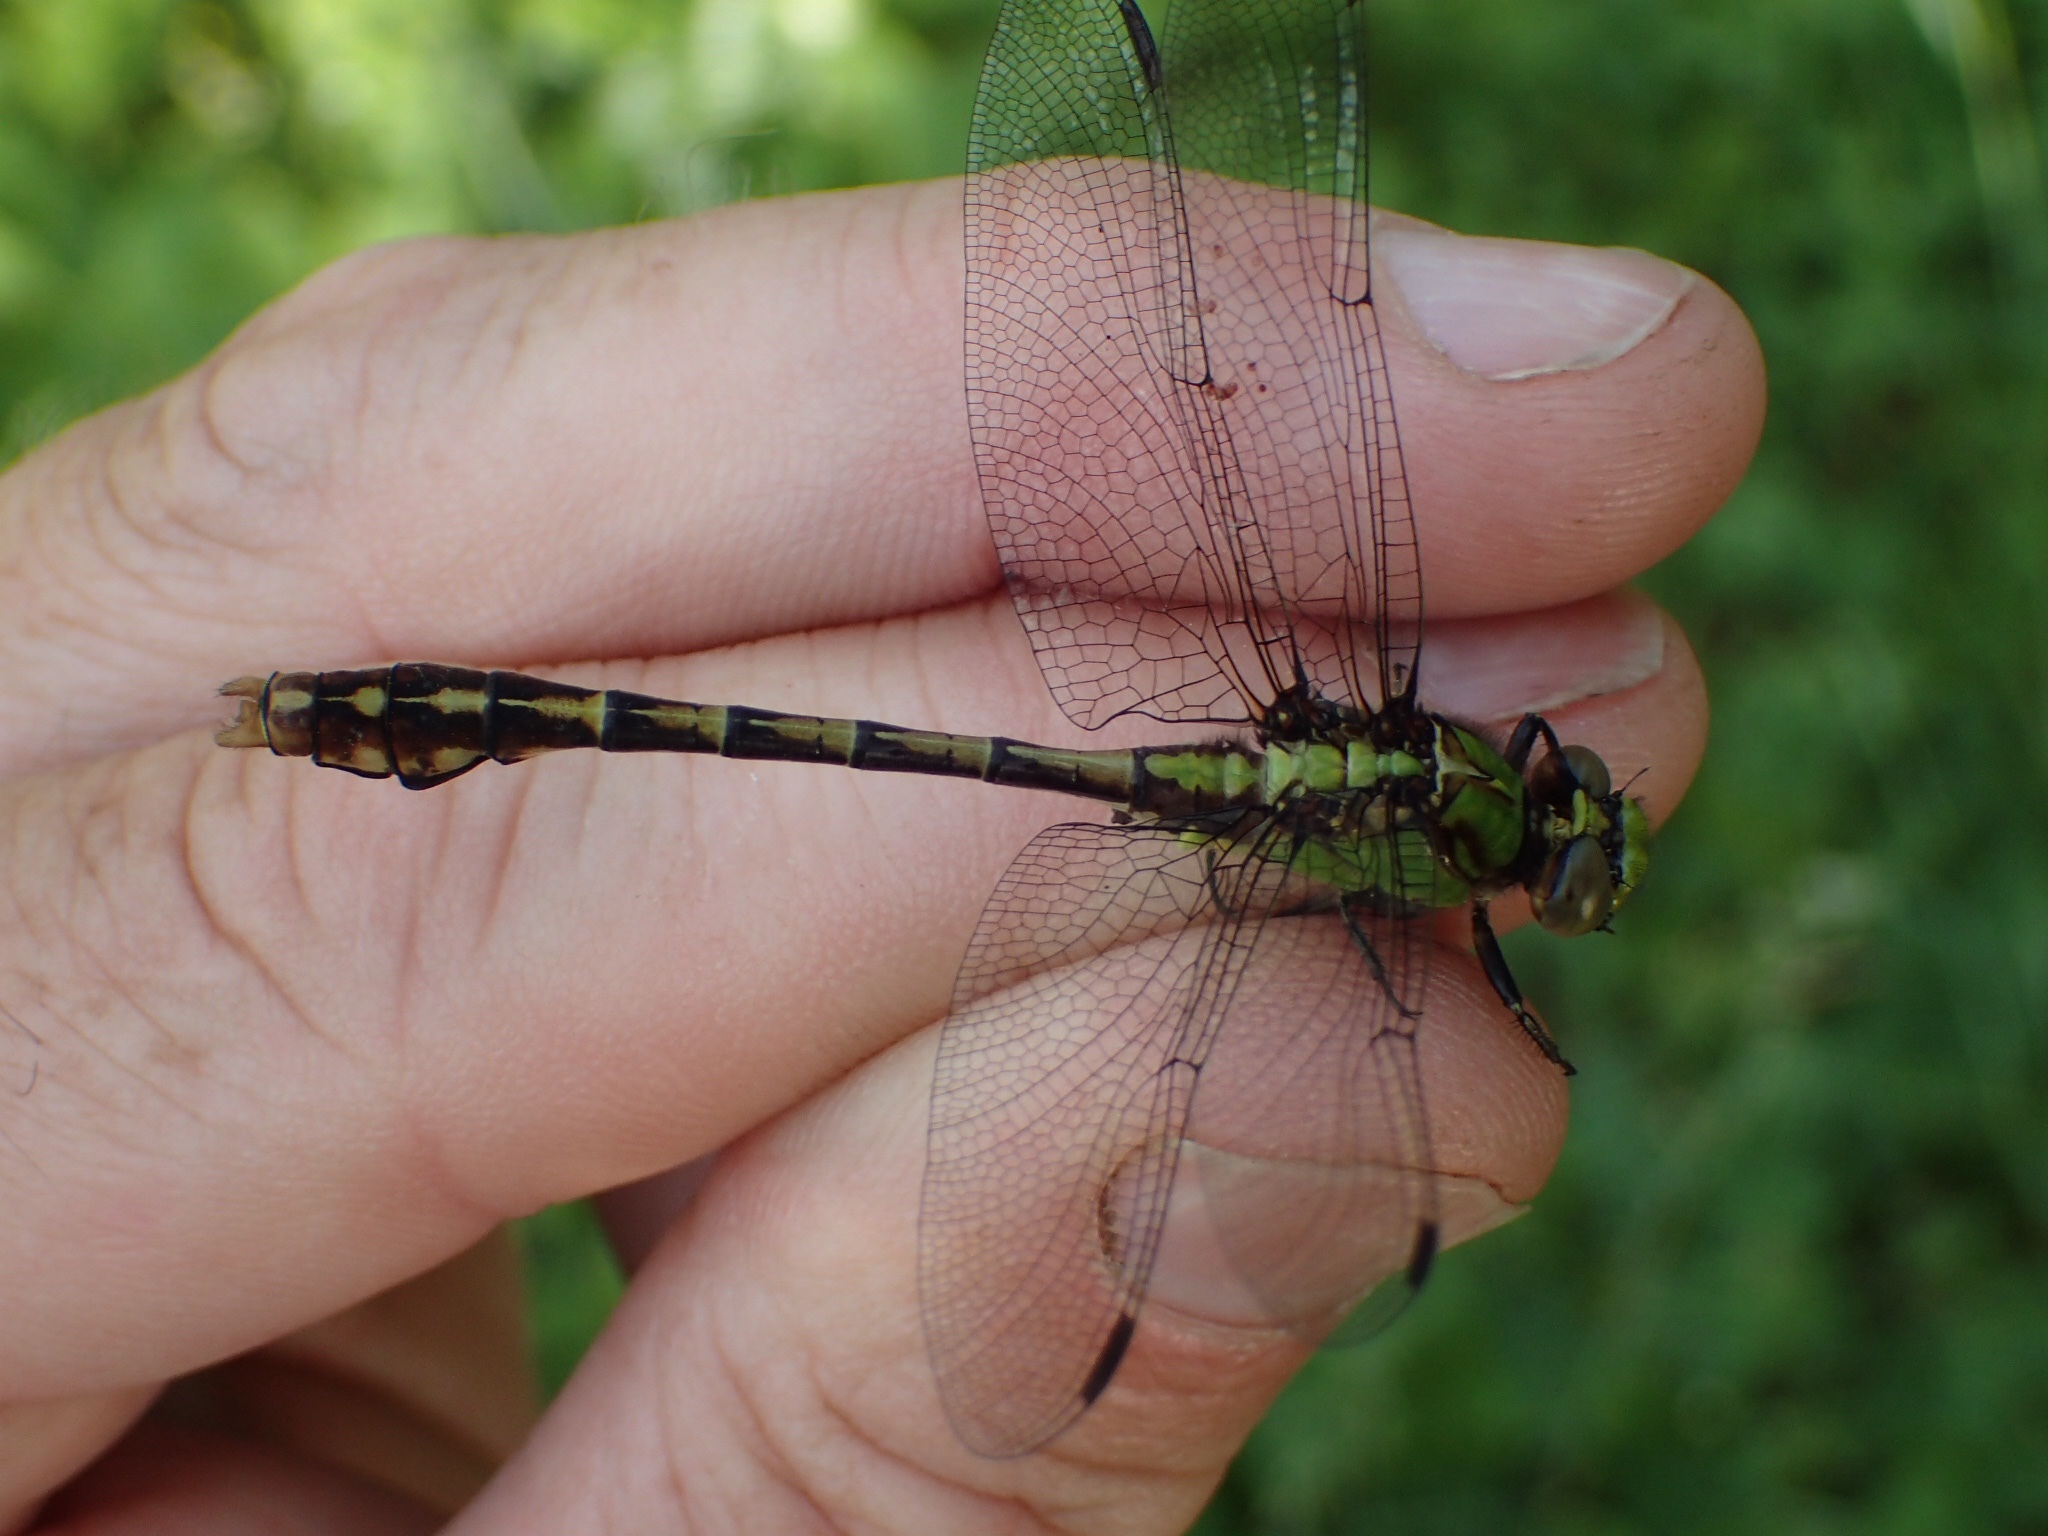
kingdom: Animalia
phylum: Arthropoda
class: Insecta
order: Odonata
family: Gomphidae
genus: Ophiogomphus
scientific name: Ophiogomphus rupinsulensis
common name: Rusty snaketail
